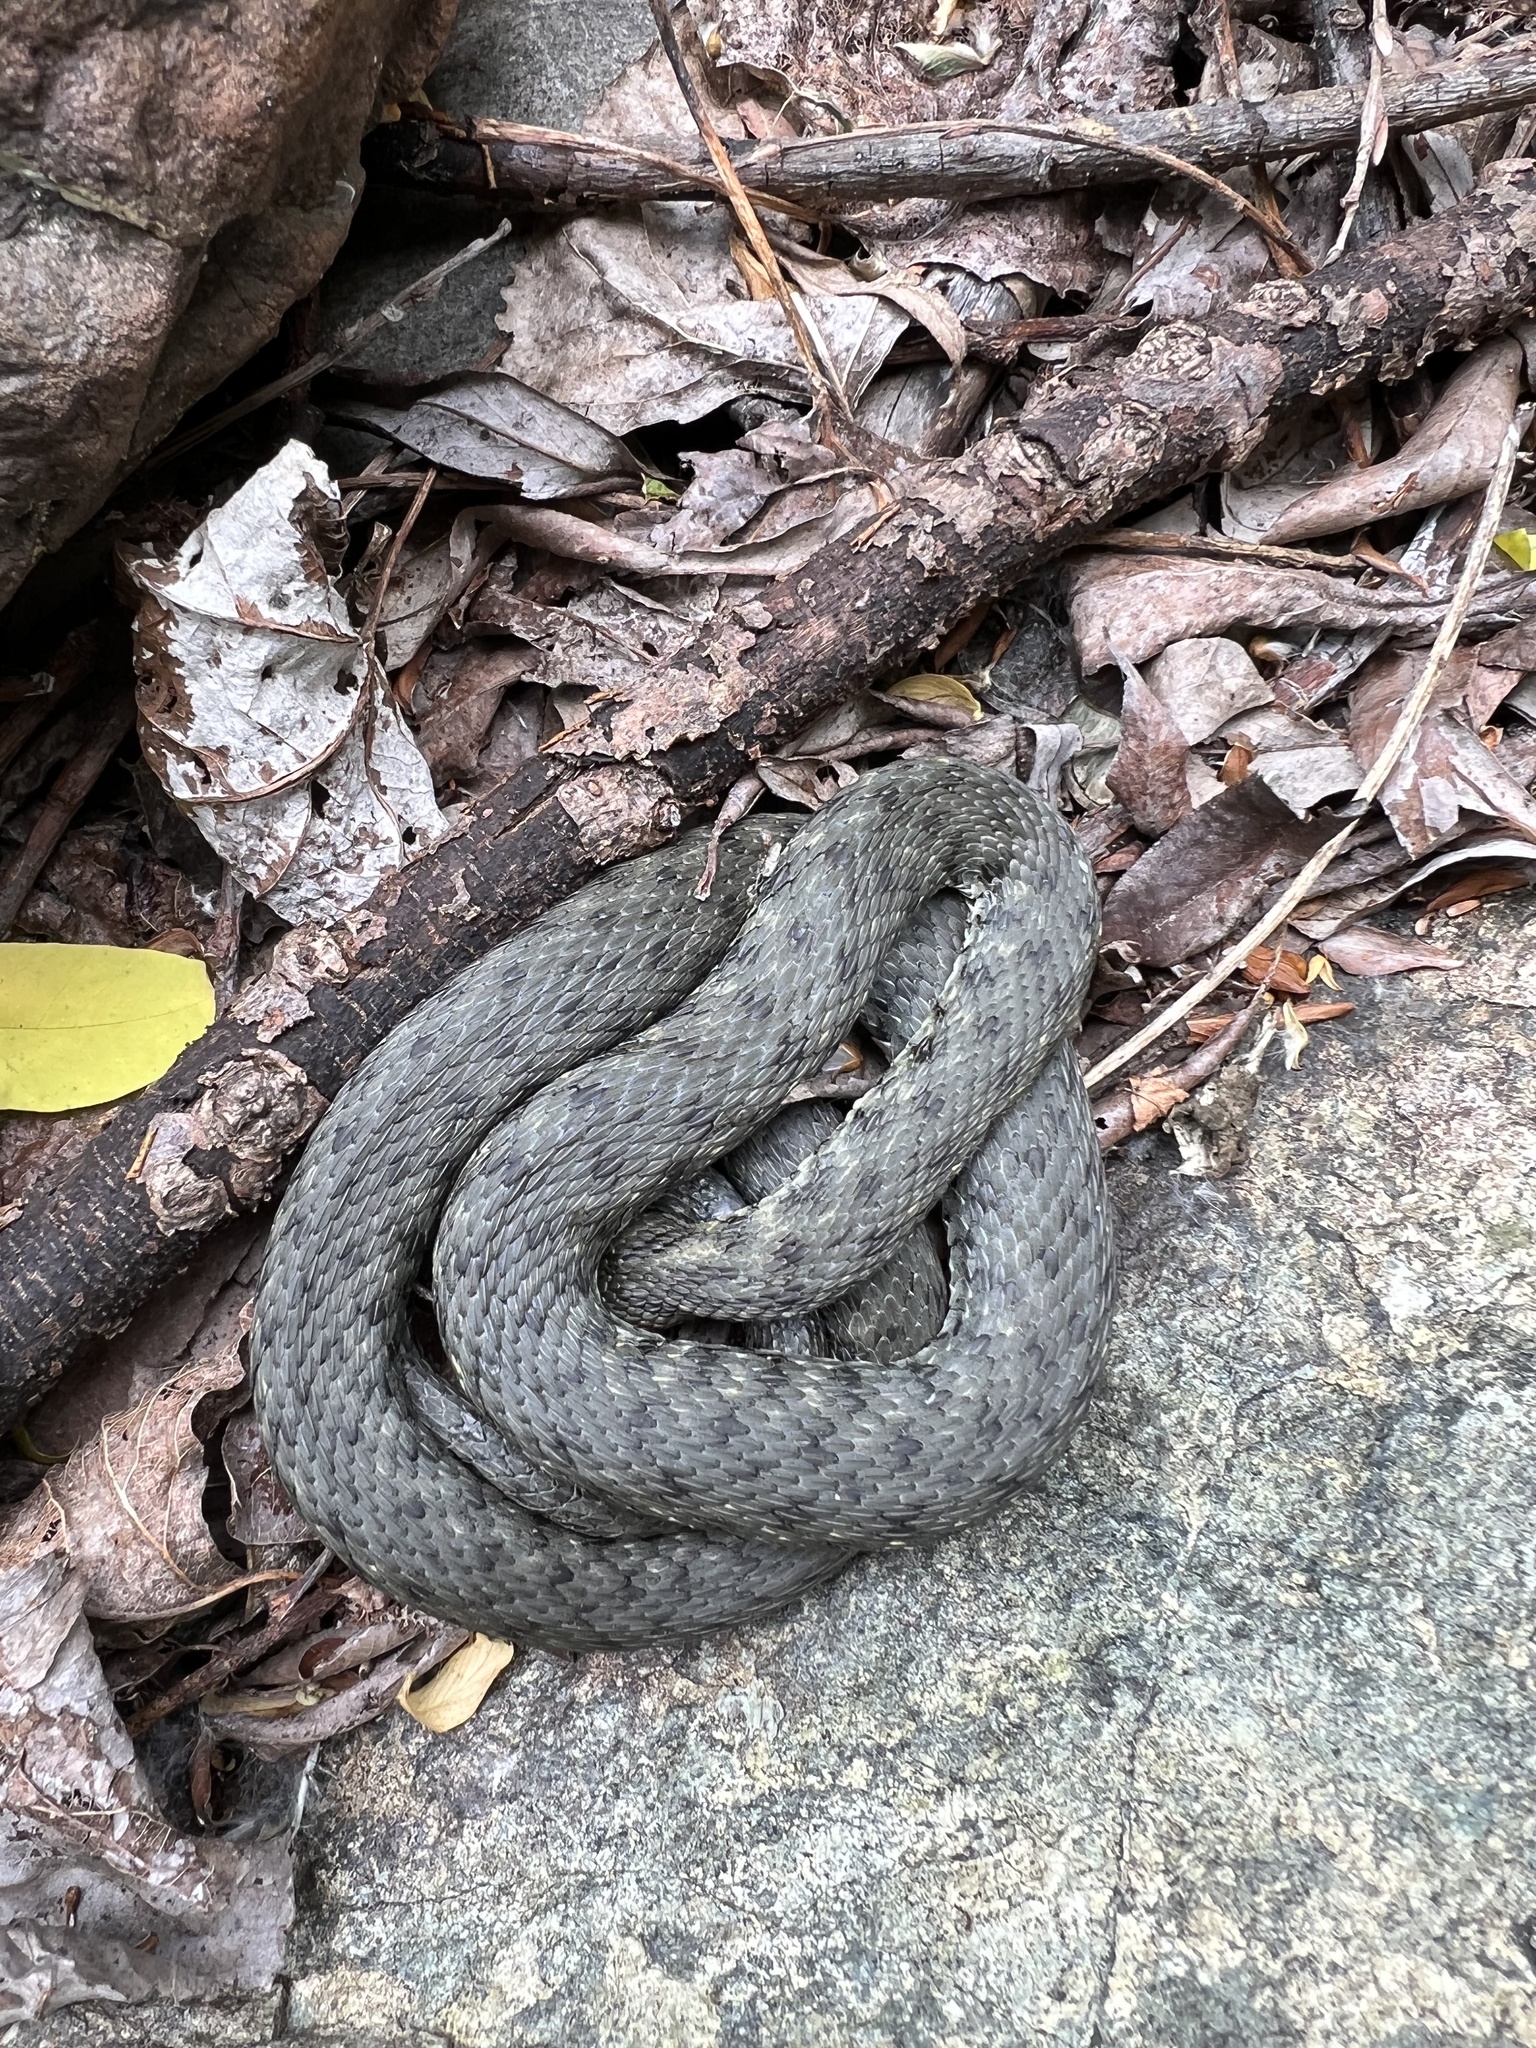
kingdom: Animalia
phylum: Chordata
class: Squamata
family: Colubridae
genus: Natrix
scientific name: Natrix tessellata
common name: Dice snake
